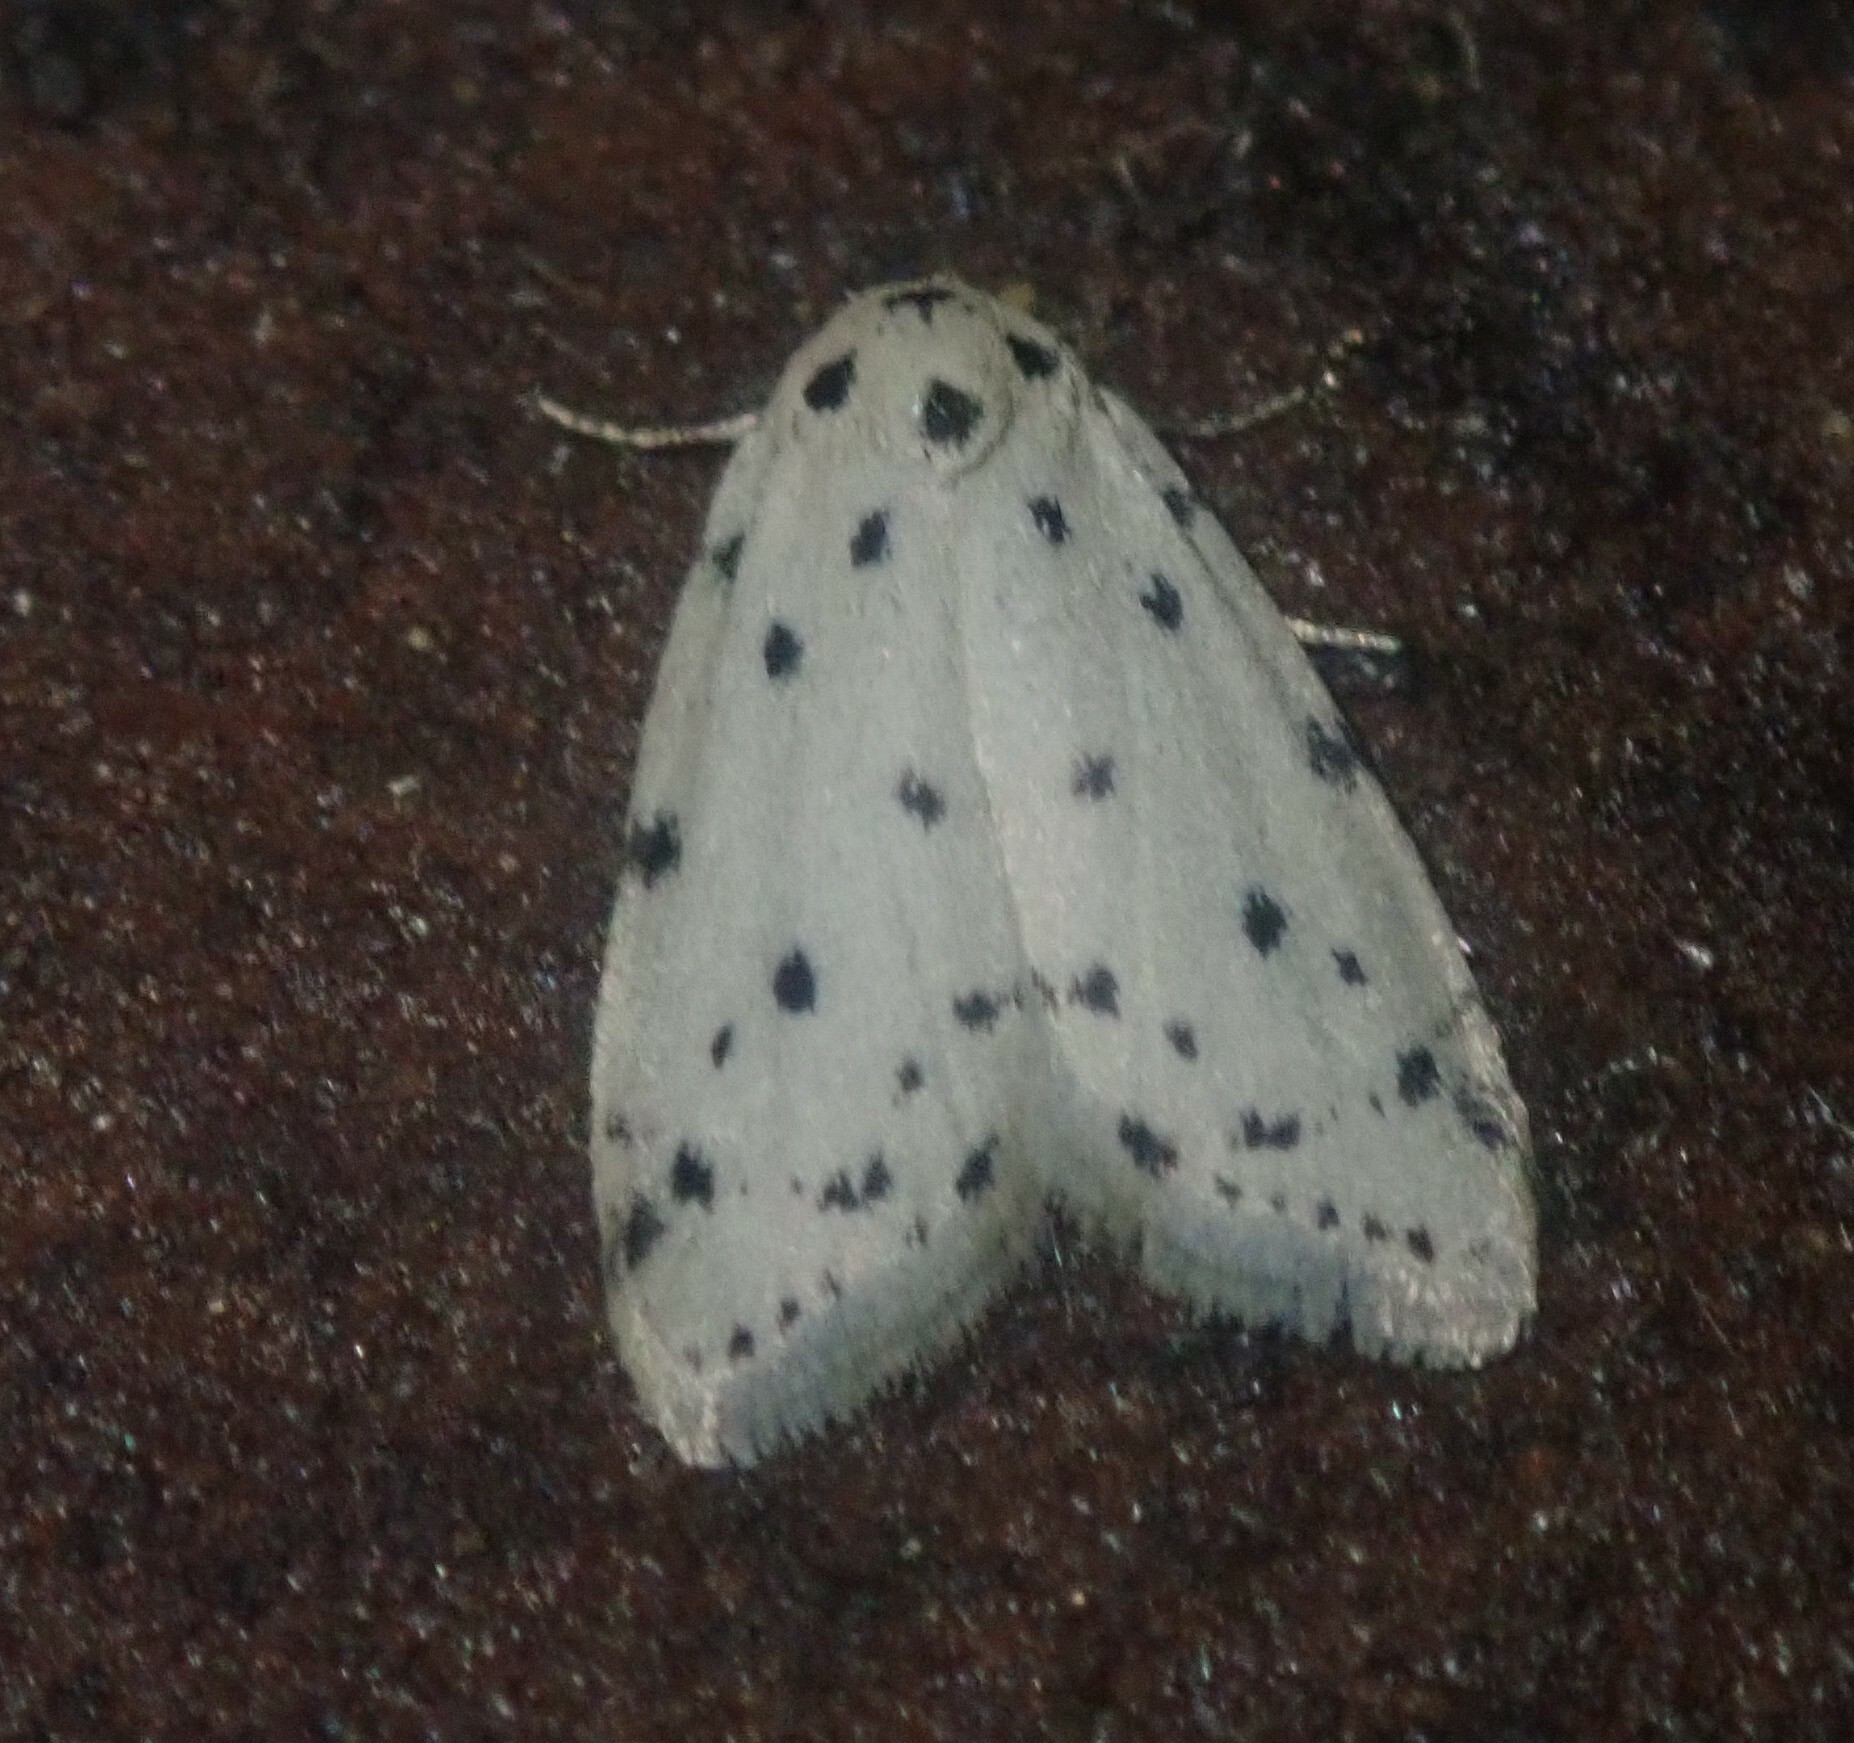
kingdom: Animalia
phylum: Arthropoda
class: Insecta
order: Lepidoptera
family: Erebidae
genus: Siccia
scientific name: Siccia melanospila
